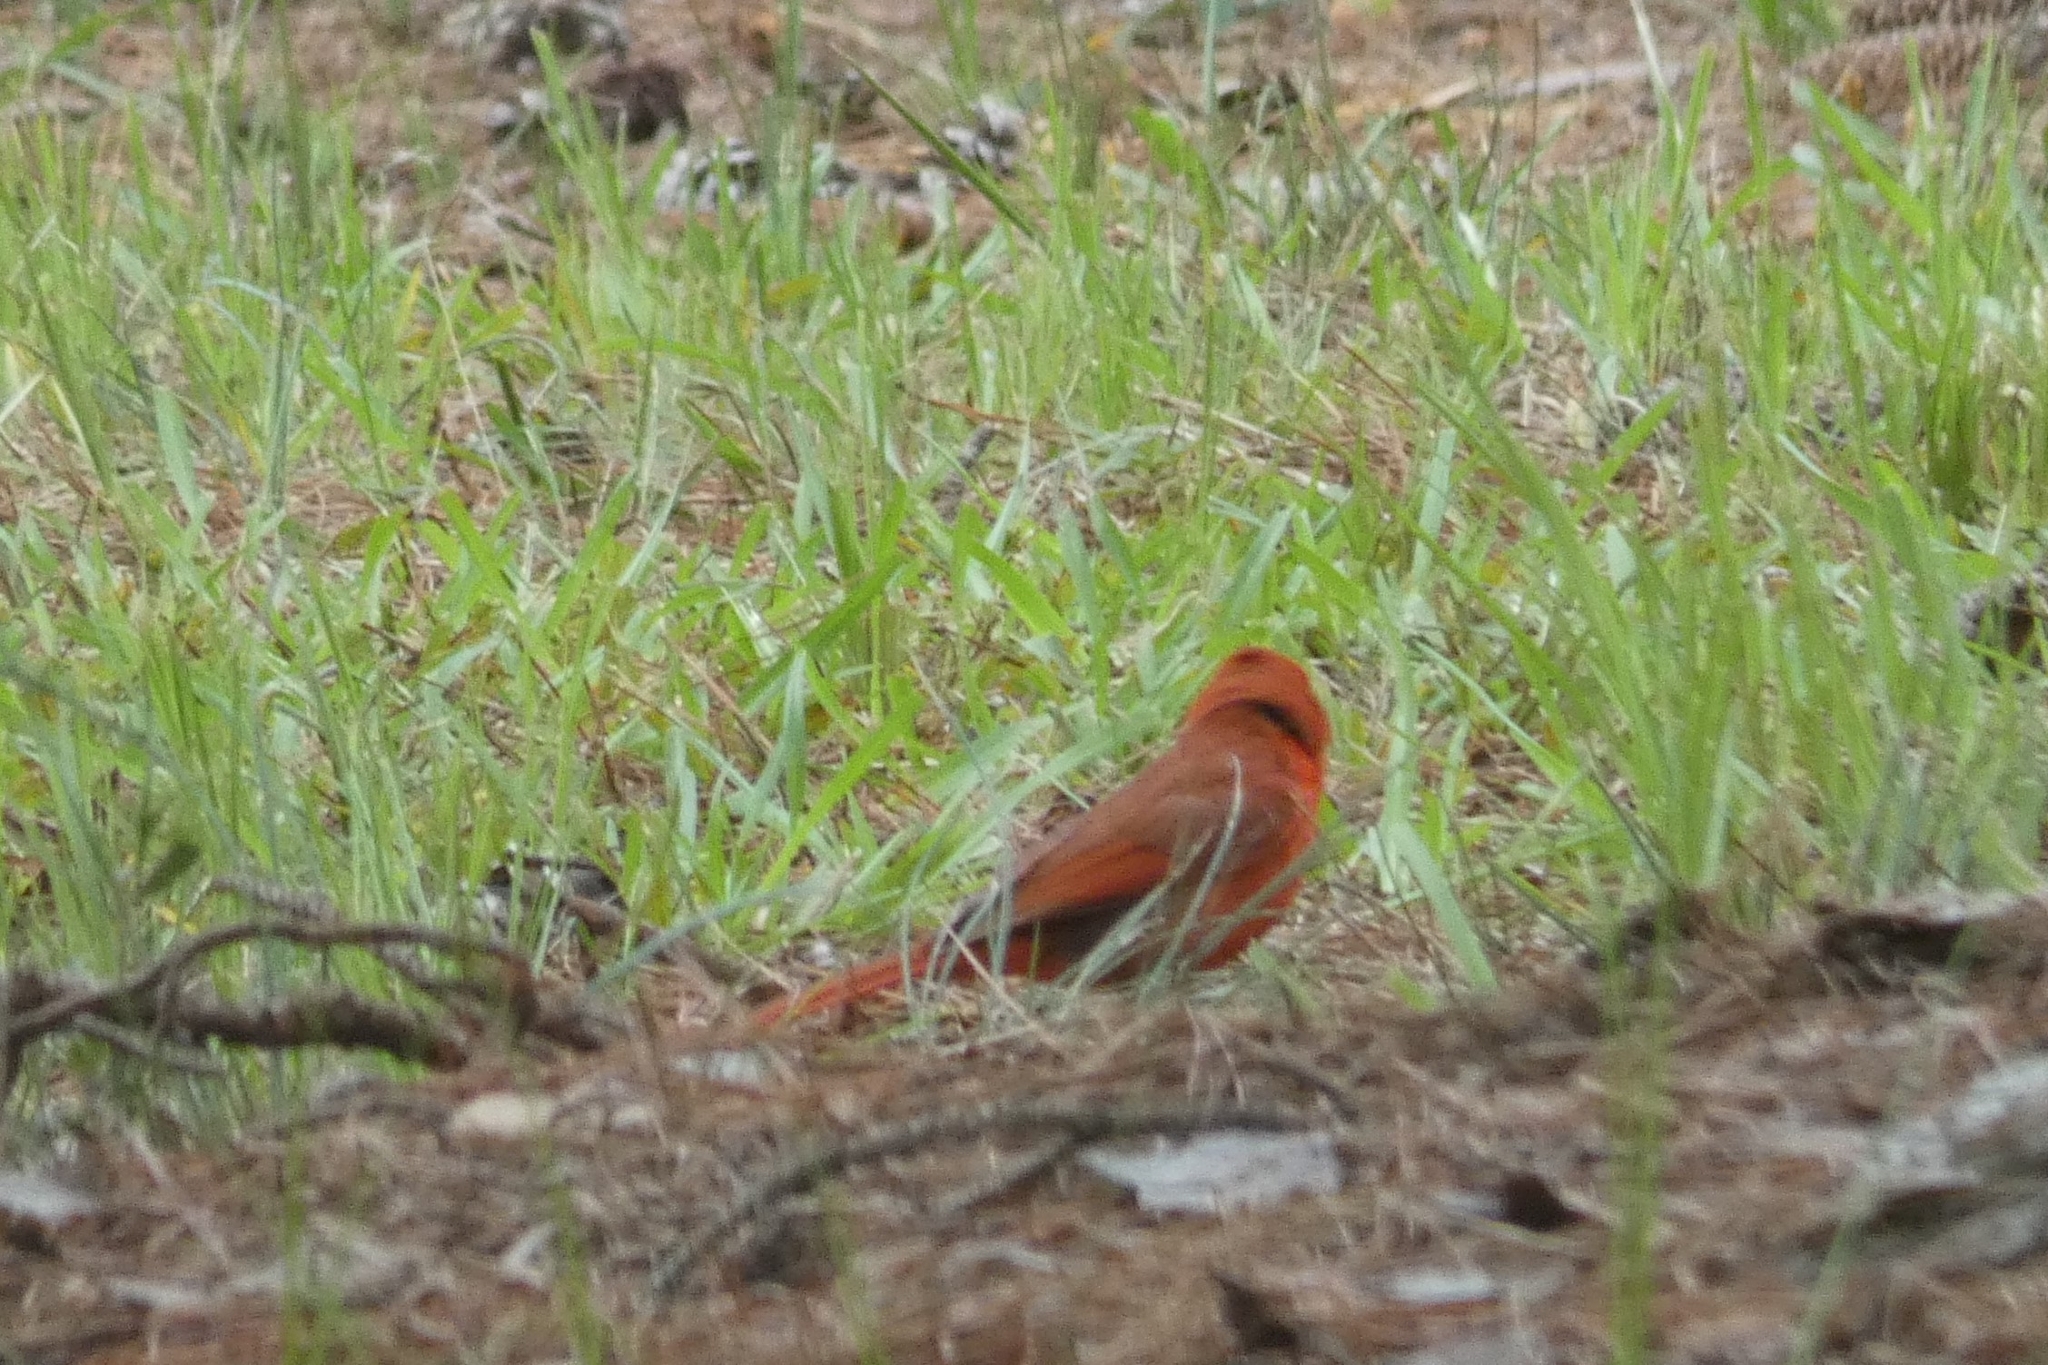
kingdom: Animalia
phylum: Chordata
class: Aves
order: Passeriformes
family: Cardinalidae
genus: Cardinalis
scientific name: Cardinalis cardinalis
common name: Northern cardinal
